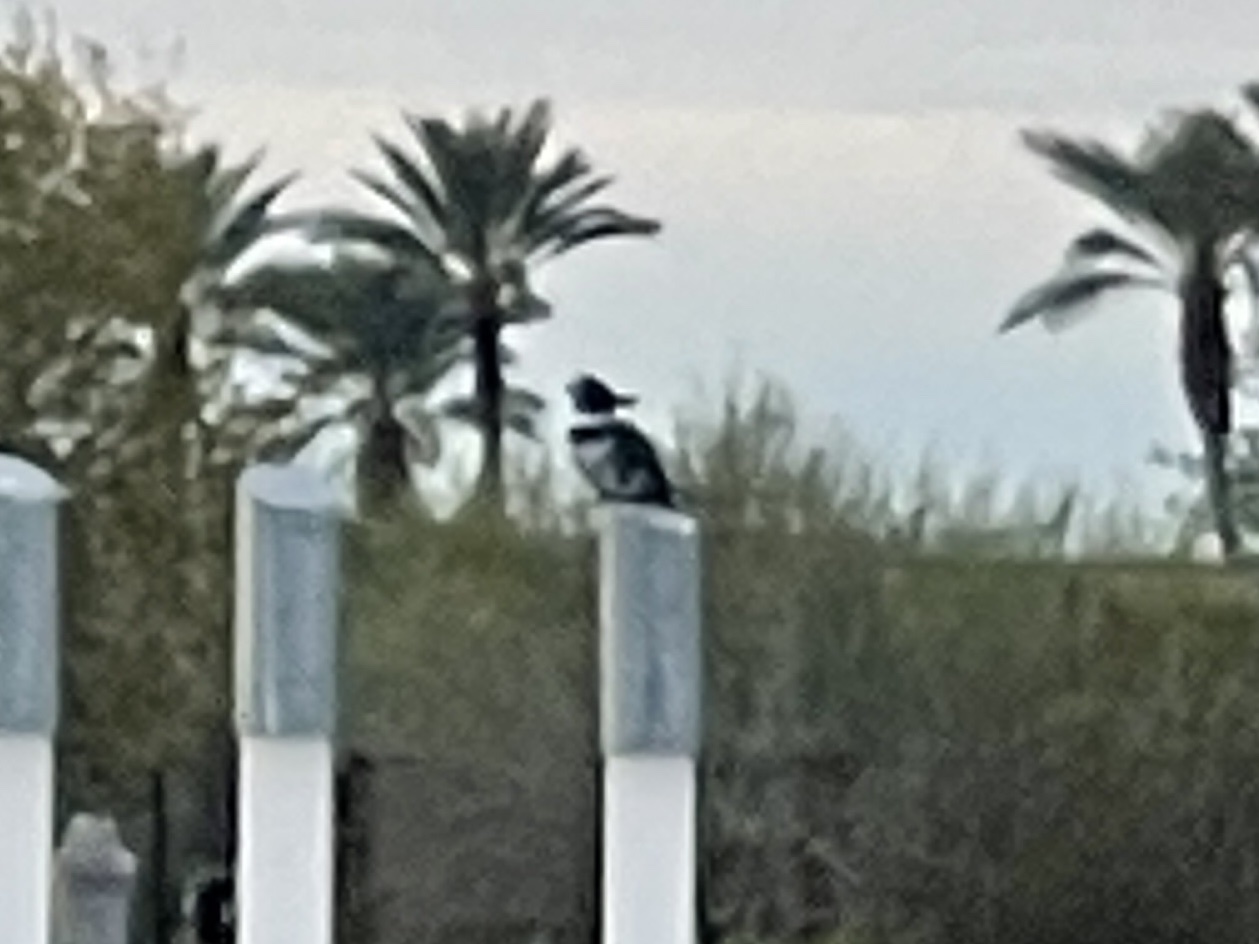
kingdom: Animalia
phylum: Chordata
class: Aves
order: Coraciiformes
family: Alcedinidae
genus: Megaceryle
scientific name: Megaceryle alcyon
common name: Belted kingfisher
